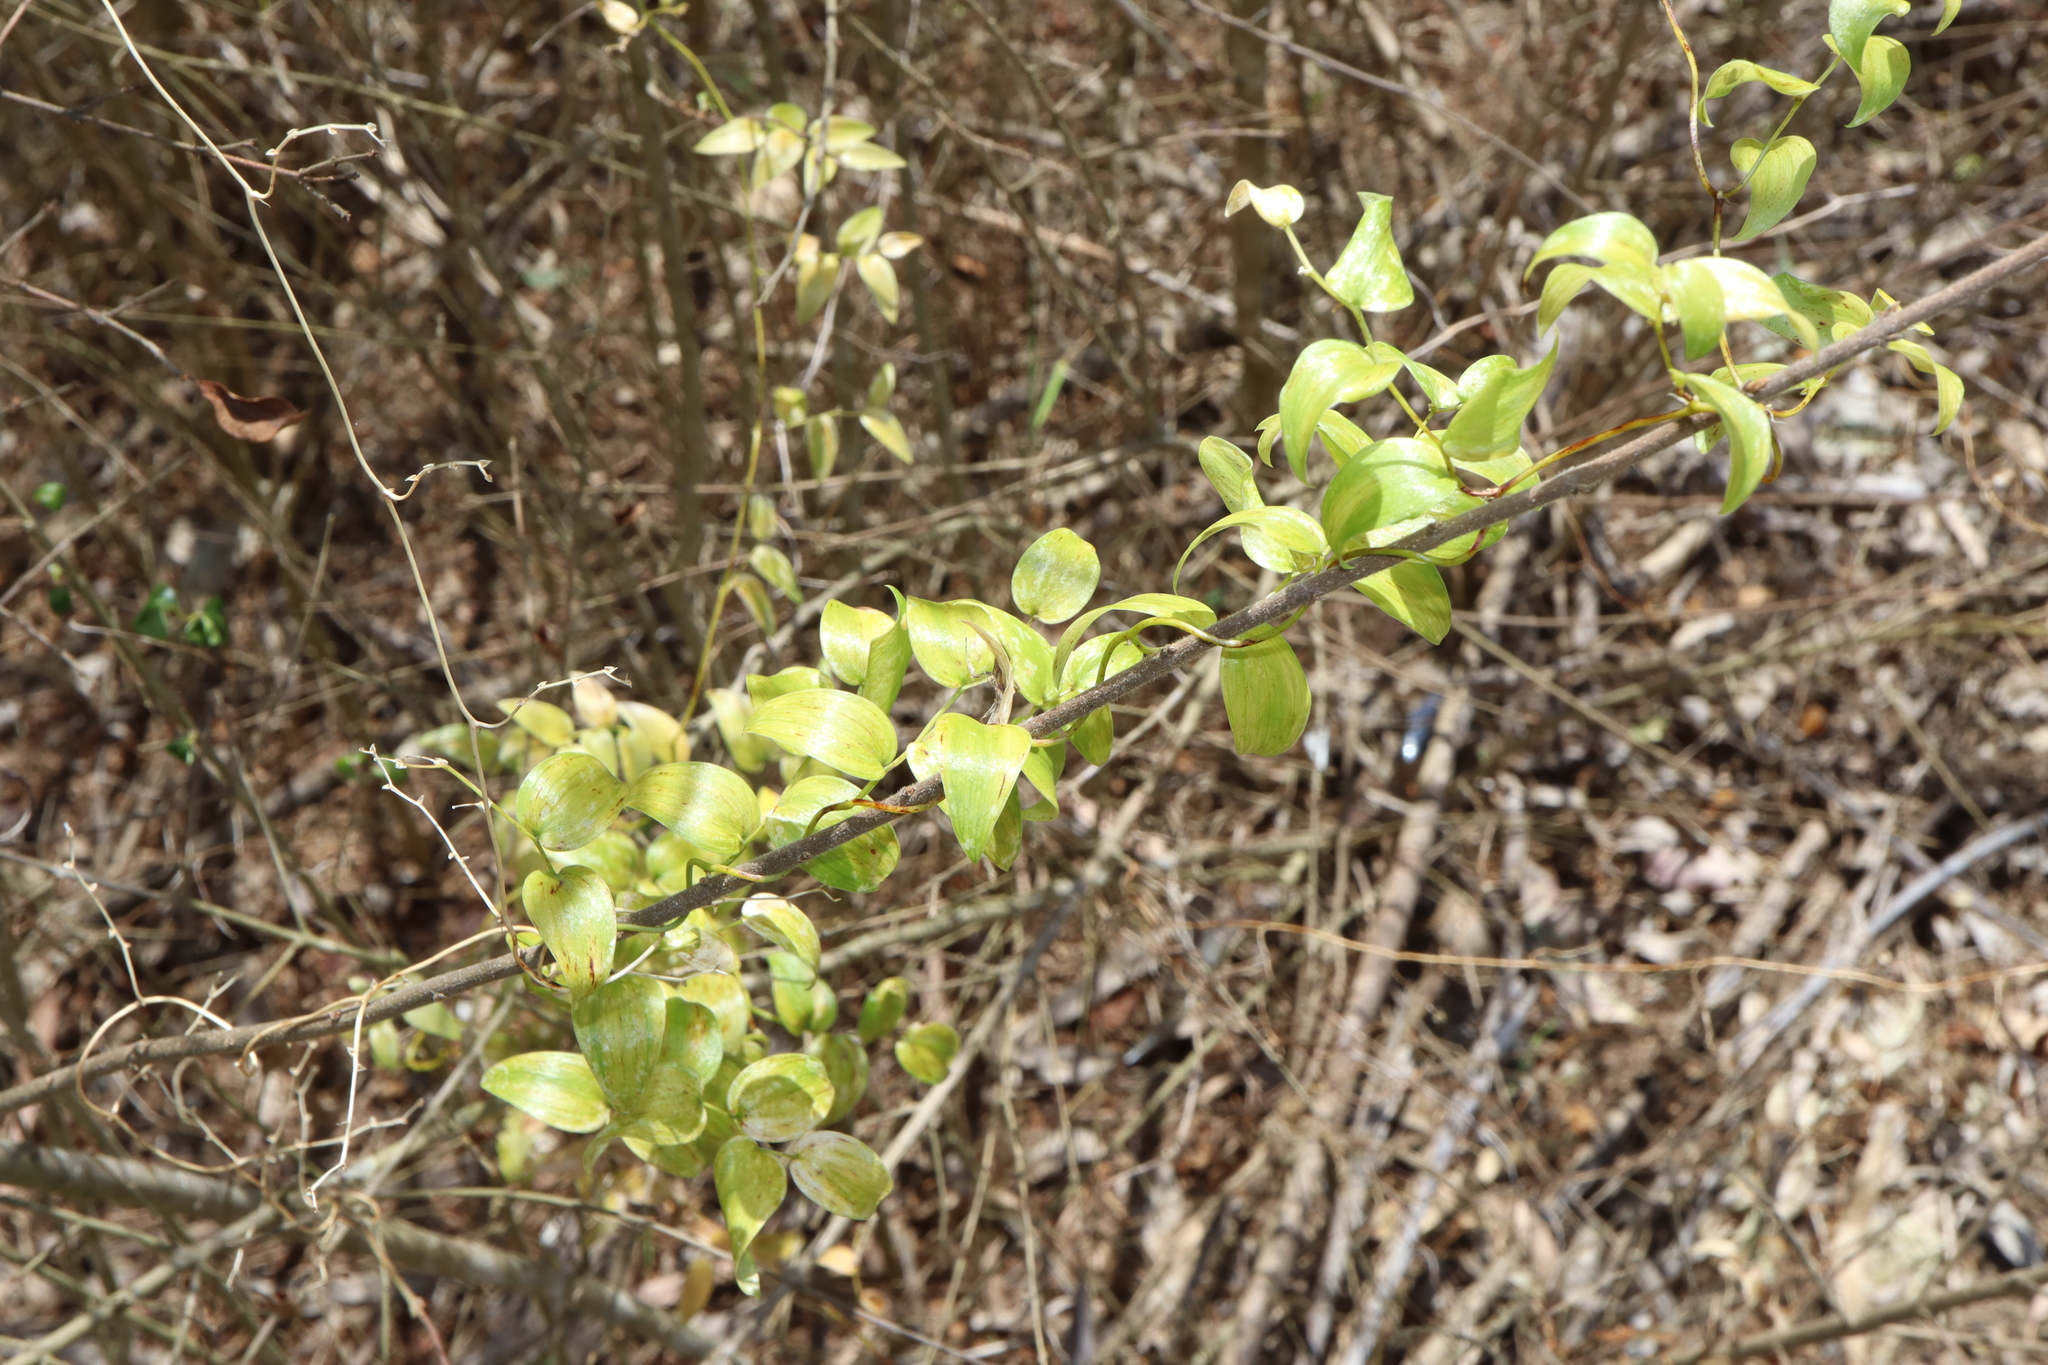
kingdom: Plantae
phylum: Tracheophyta
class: Liliopsida
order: Asparagales
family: Asparagaceae
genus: Asparagus
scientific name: Asparagus asparagoides
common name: African asparagus fern
